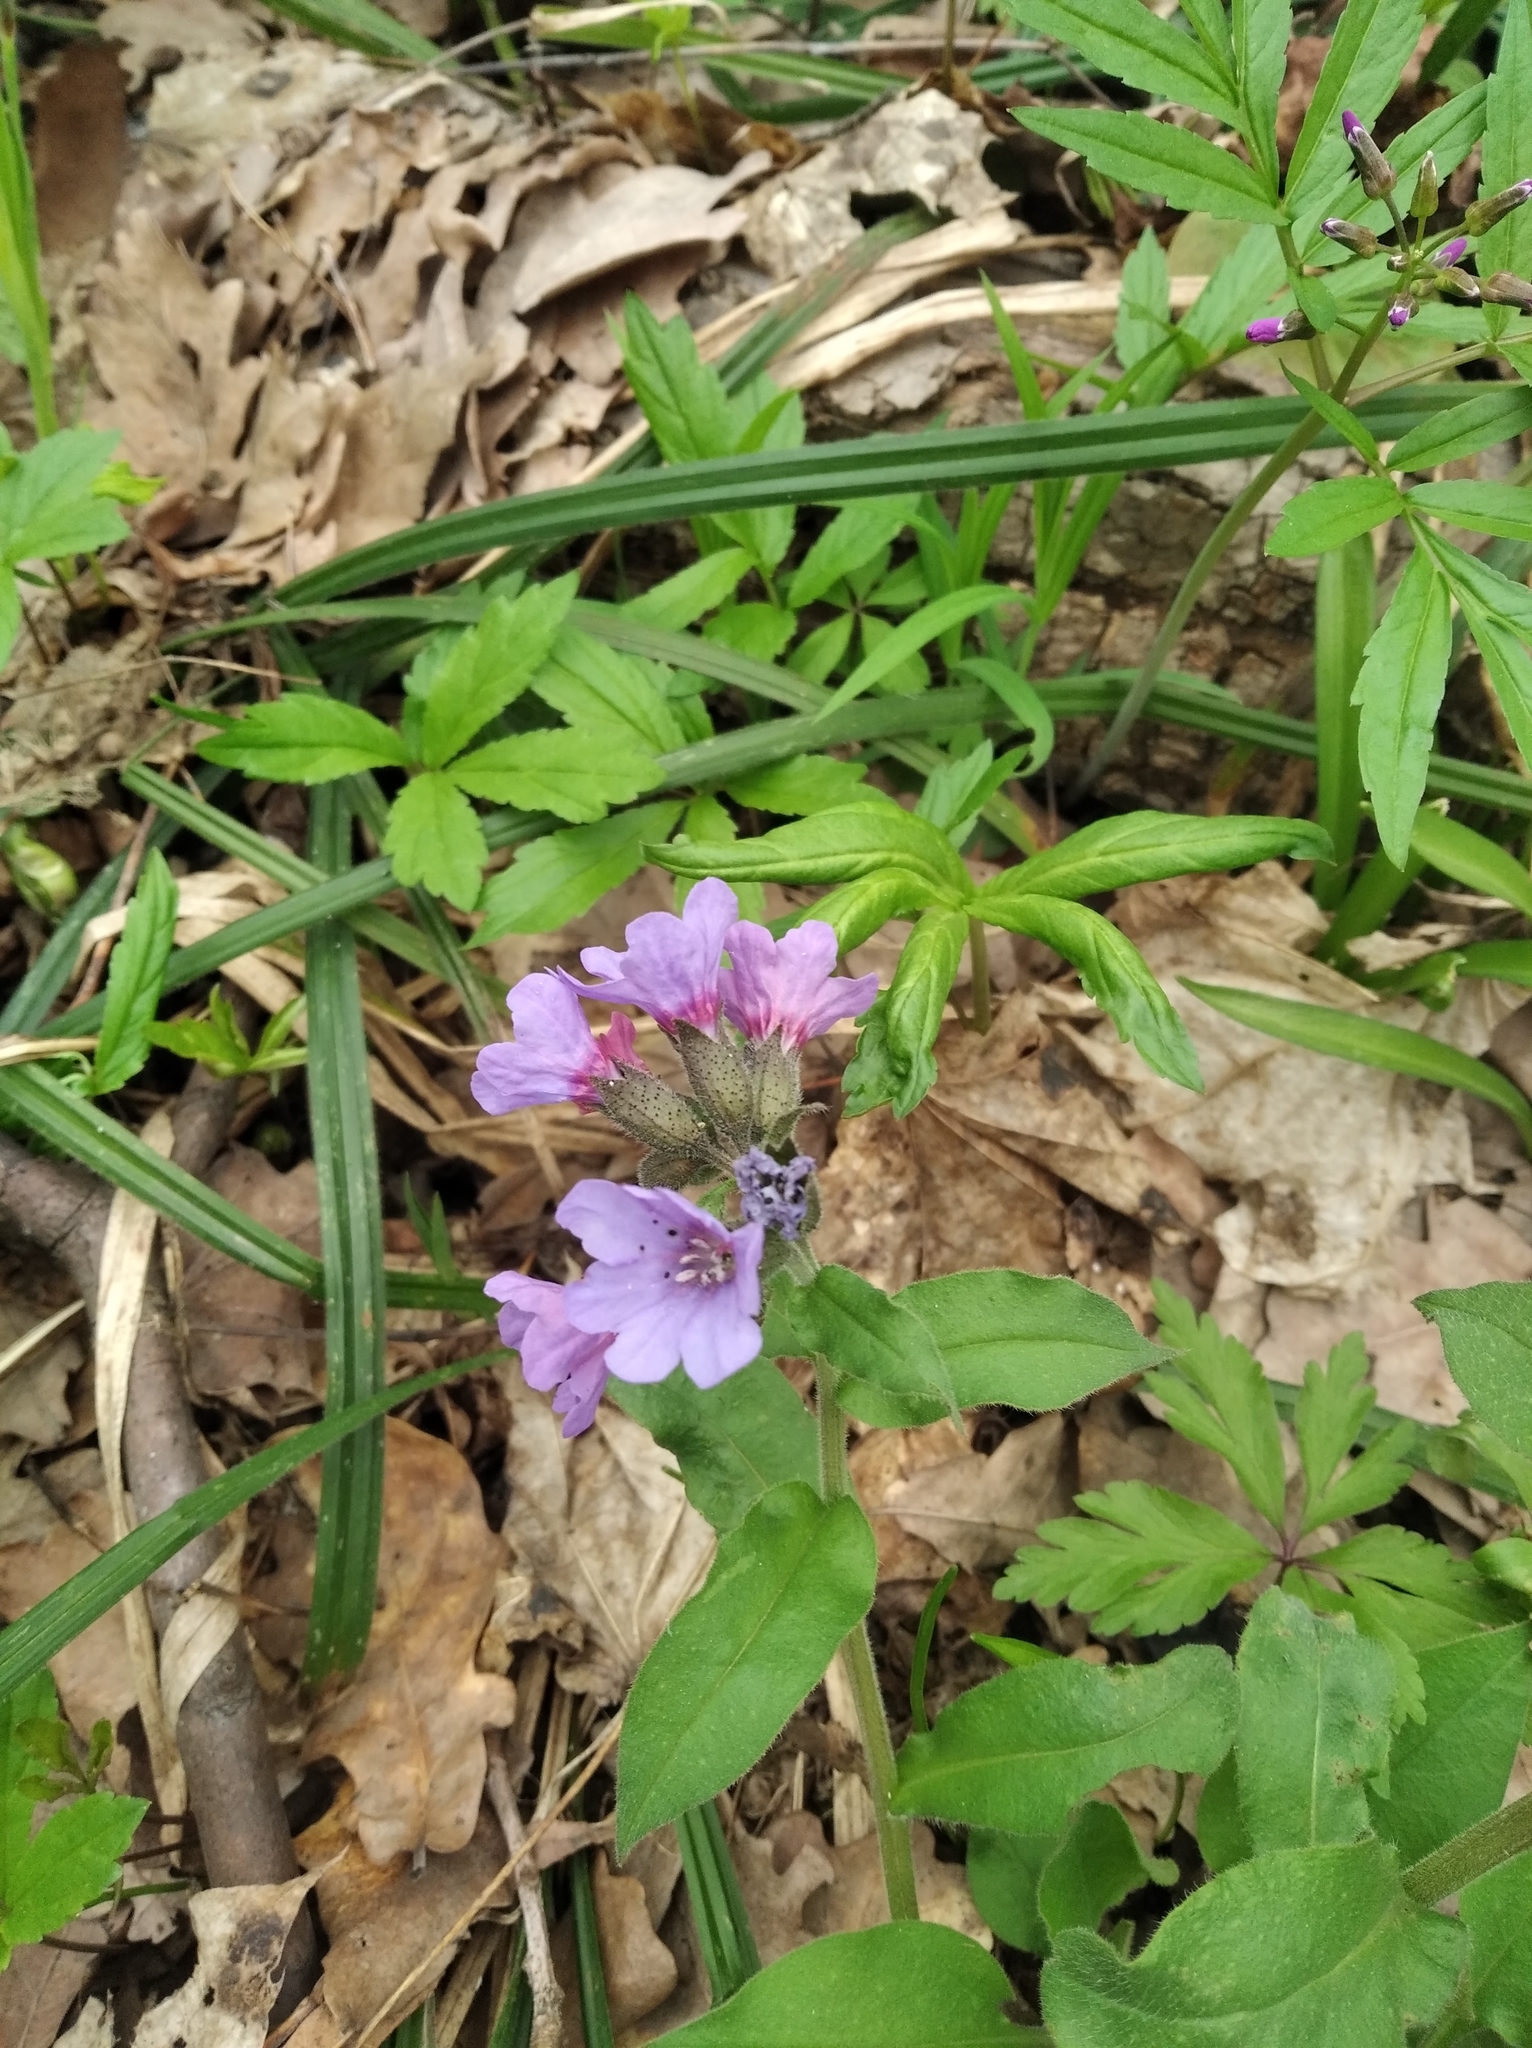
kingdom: Plantae
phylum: Tracheophyta
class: Magnoliopsida
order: Boraginales
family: Boraginaceae
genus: Pulmonaria
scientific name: Pulmonaria obscura
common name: Suffolk lungwort
